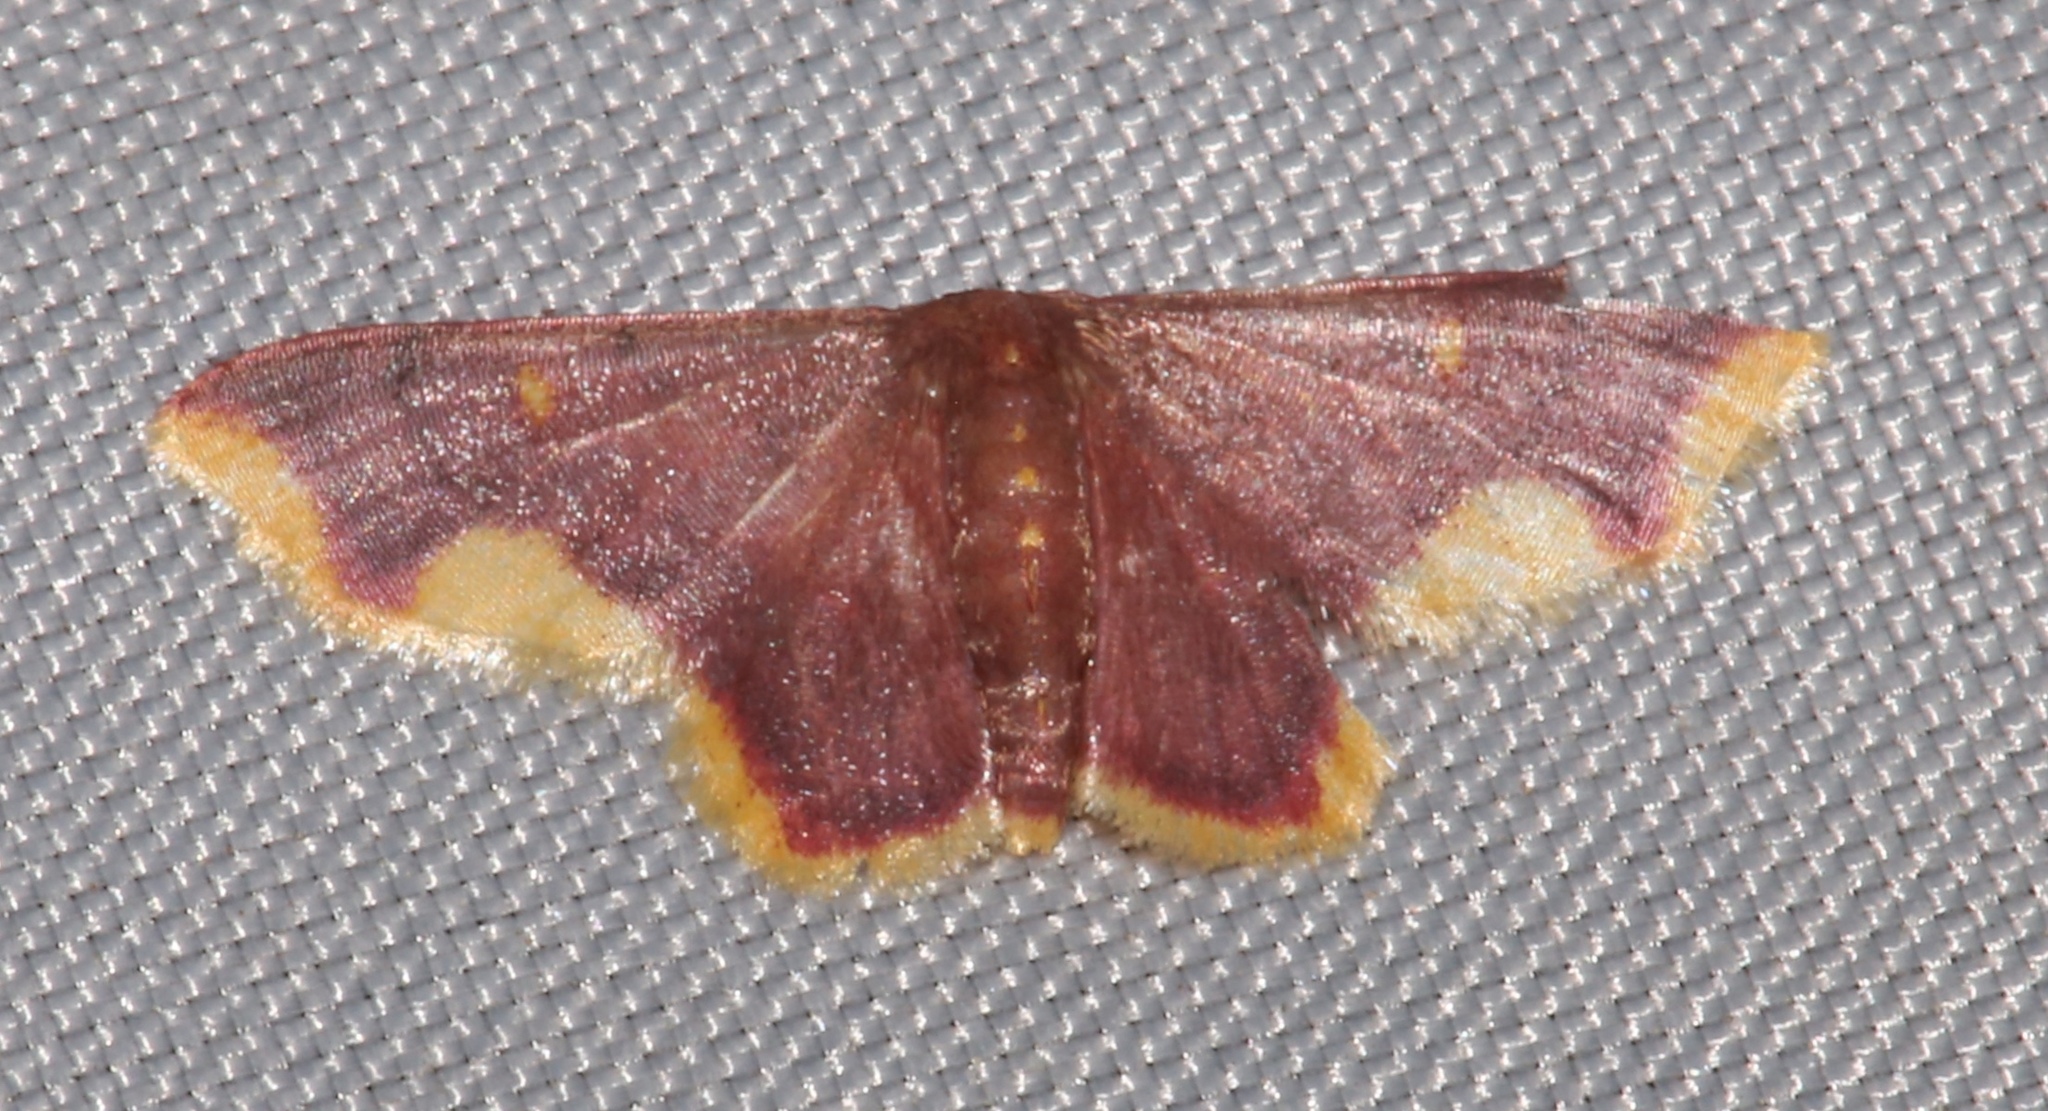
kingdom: Animalia
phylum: Arthropoda
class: Insecta
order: Lepidoptera
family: Geometridae
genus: Lophosis
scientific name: Lophosis labeculata
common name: Stained lophosis moth
